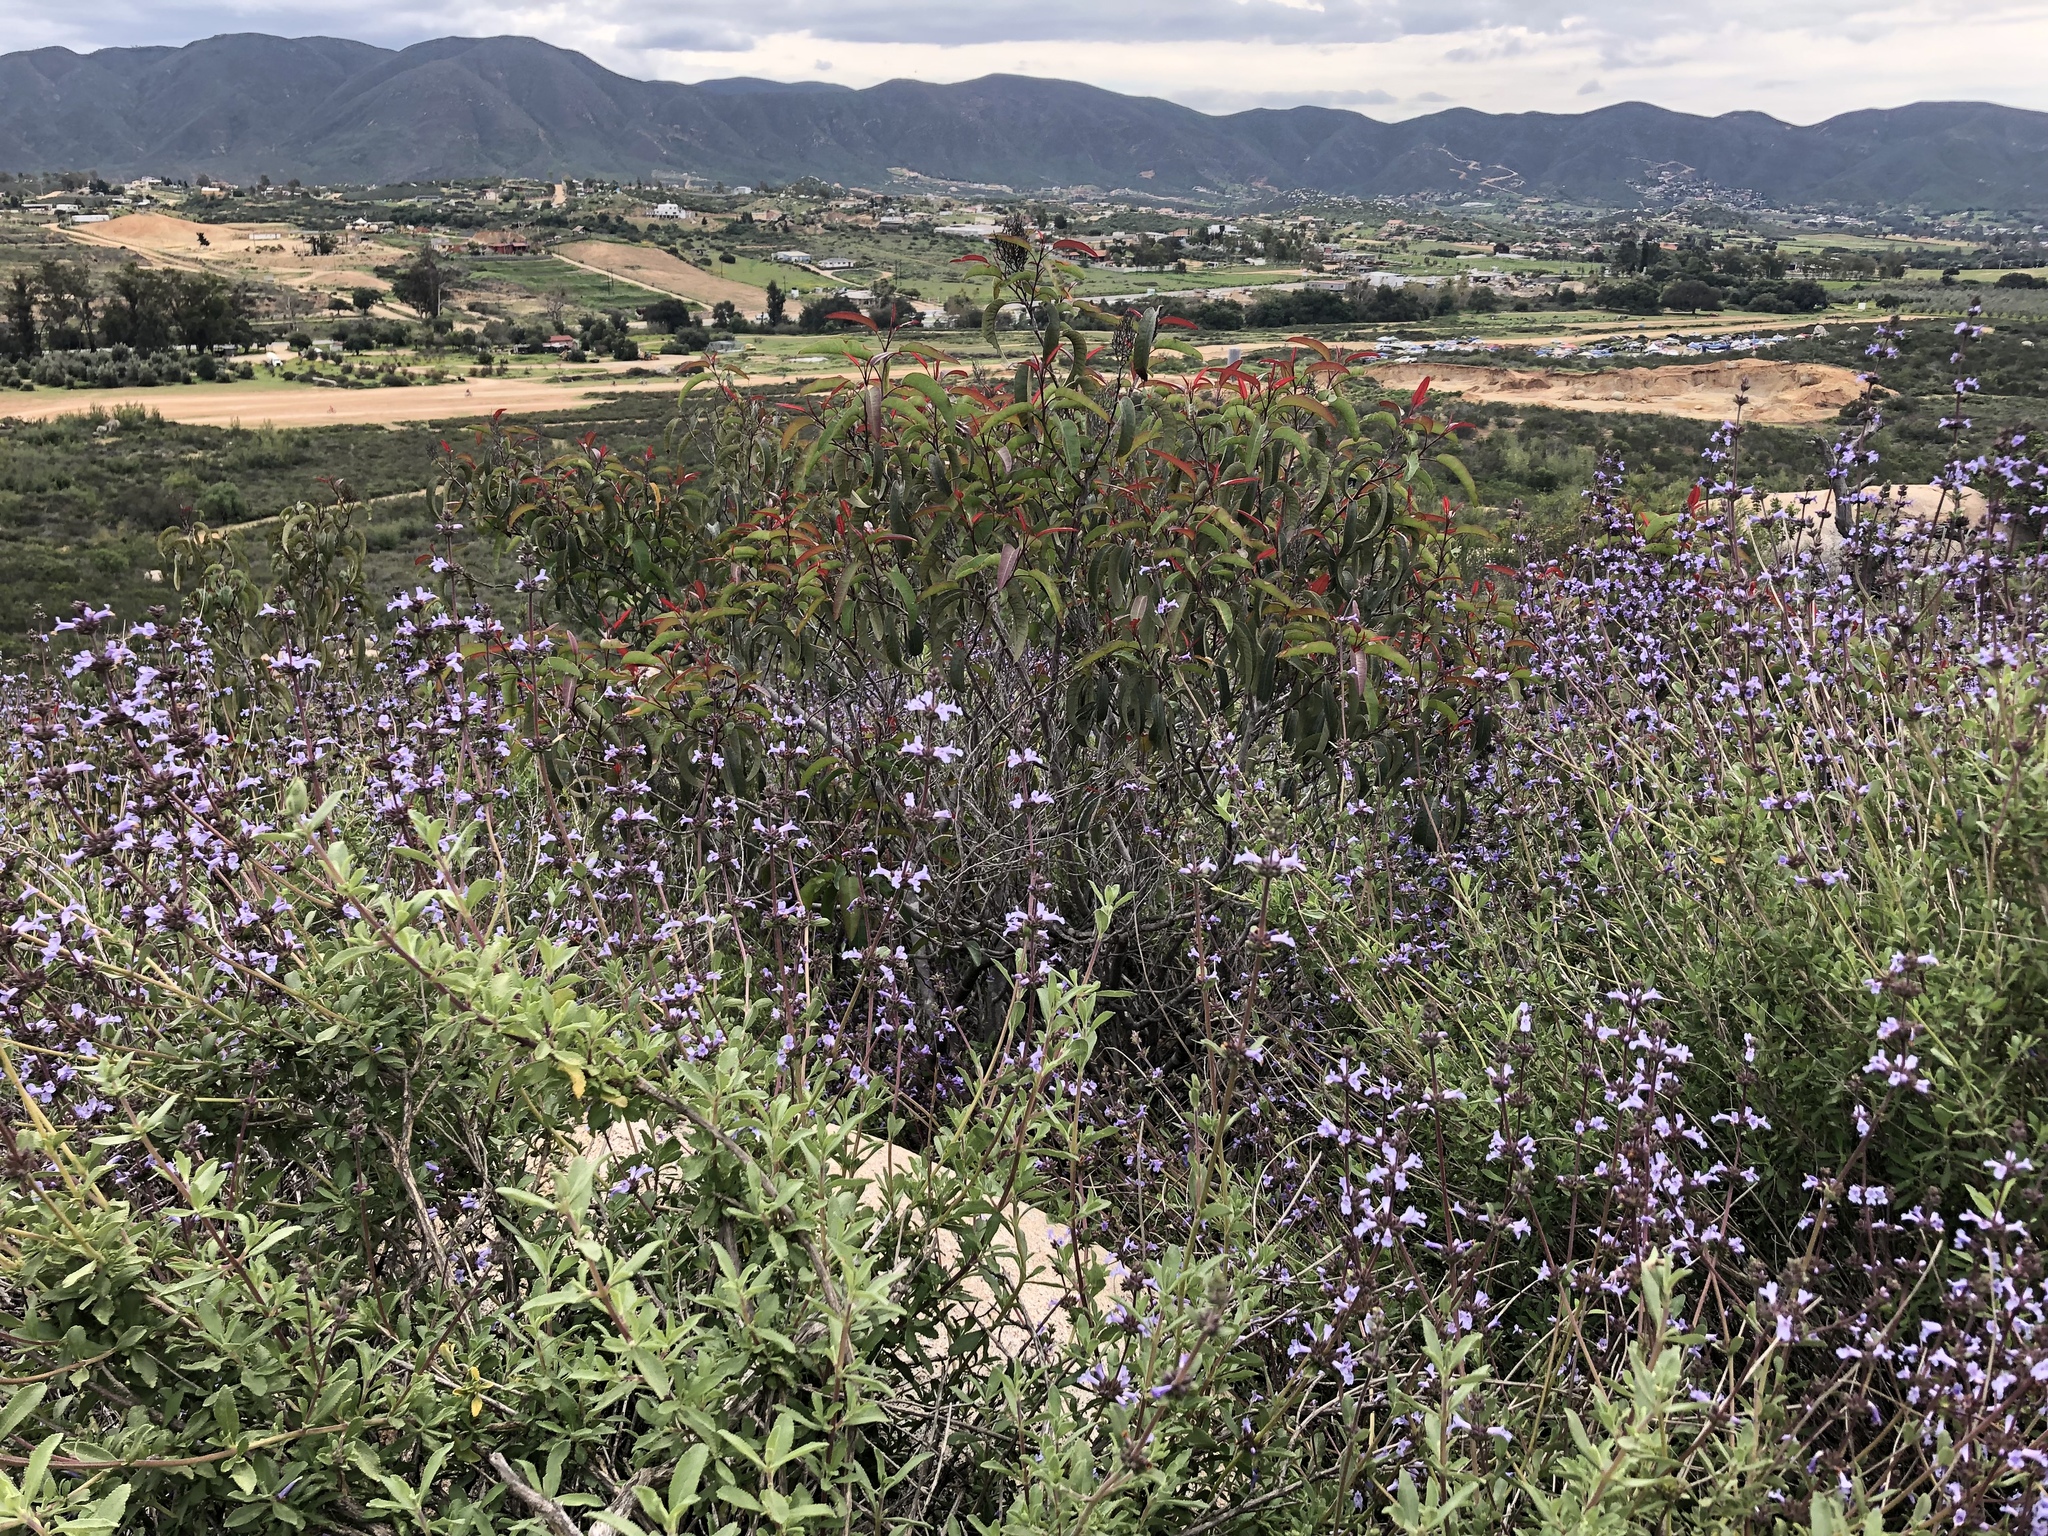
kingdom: Plantae
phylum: Tracheophyta
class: Magnoliopsida
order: Lamiales
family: Lamiaceae
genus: Salvia
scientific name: Salvia munzii
